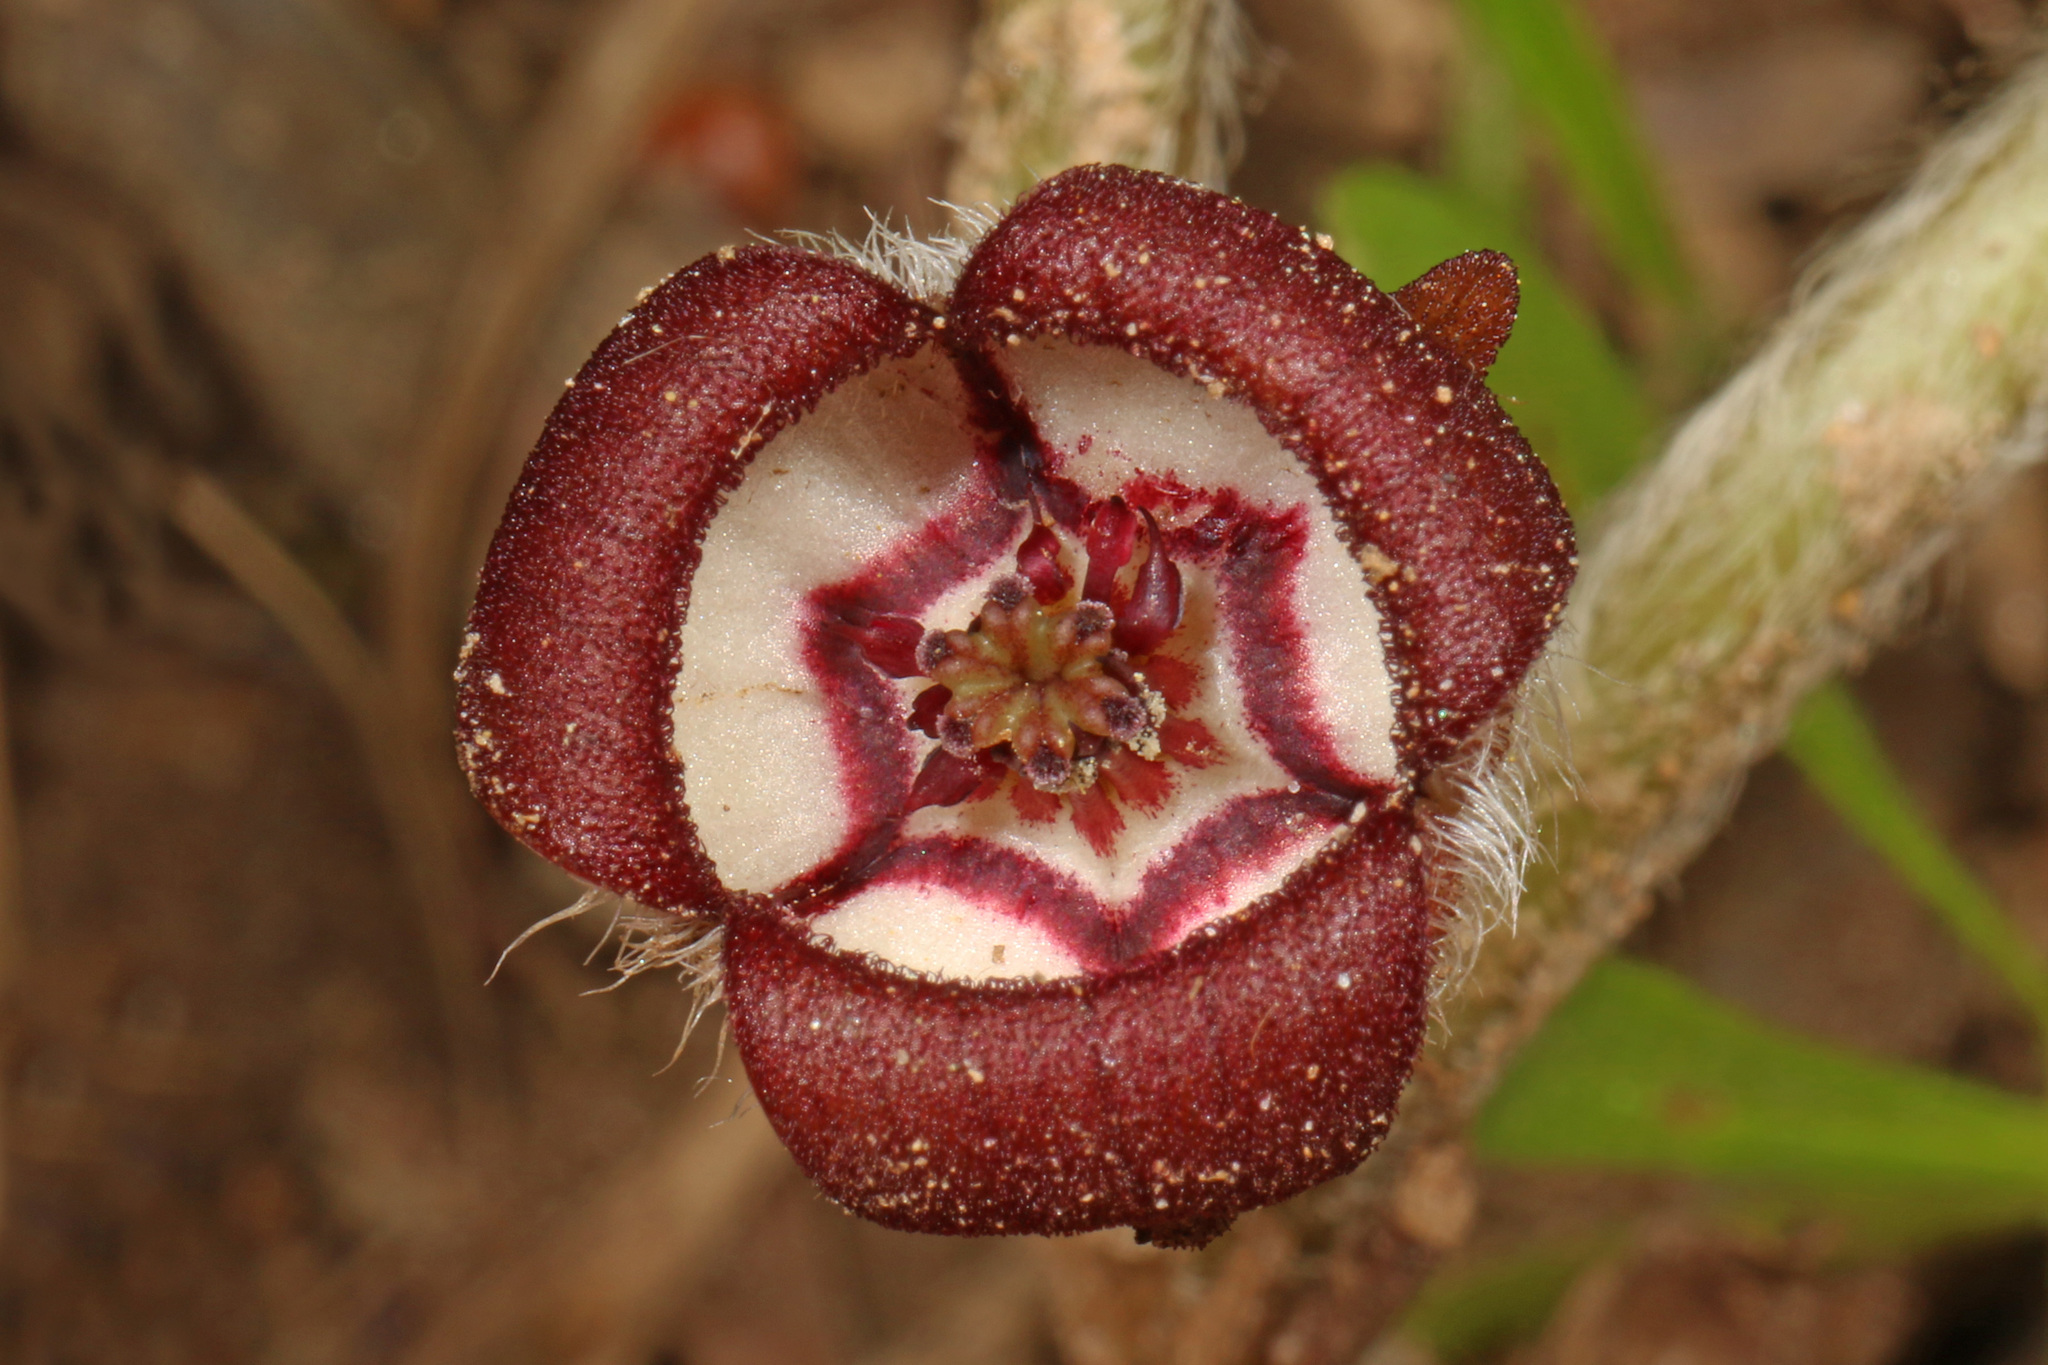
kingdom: Plantae
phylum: Tracheophyta
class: Magnoliopsida
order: Piperales
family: Aristolochiaceae
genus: Asarum
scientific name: Asarum canadense
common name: Wild ginger
